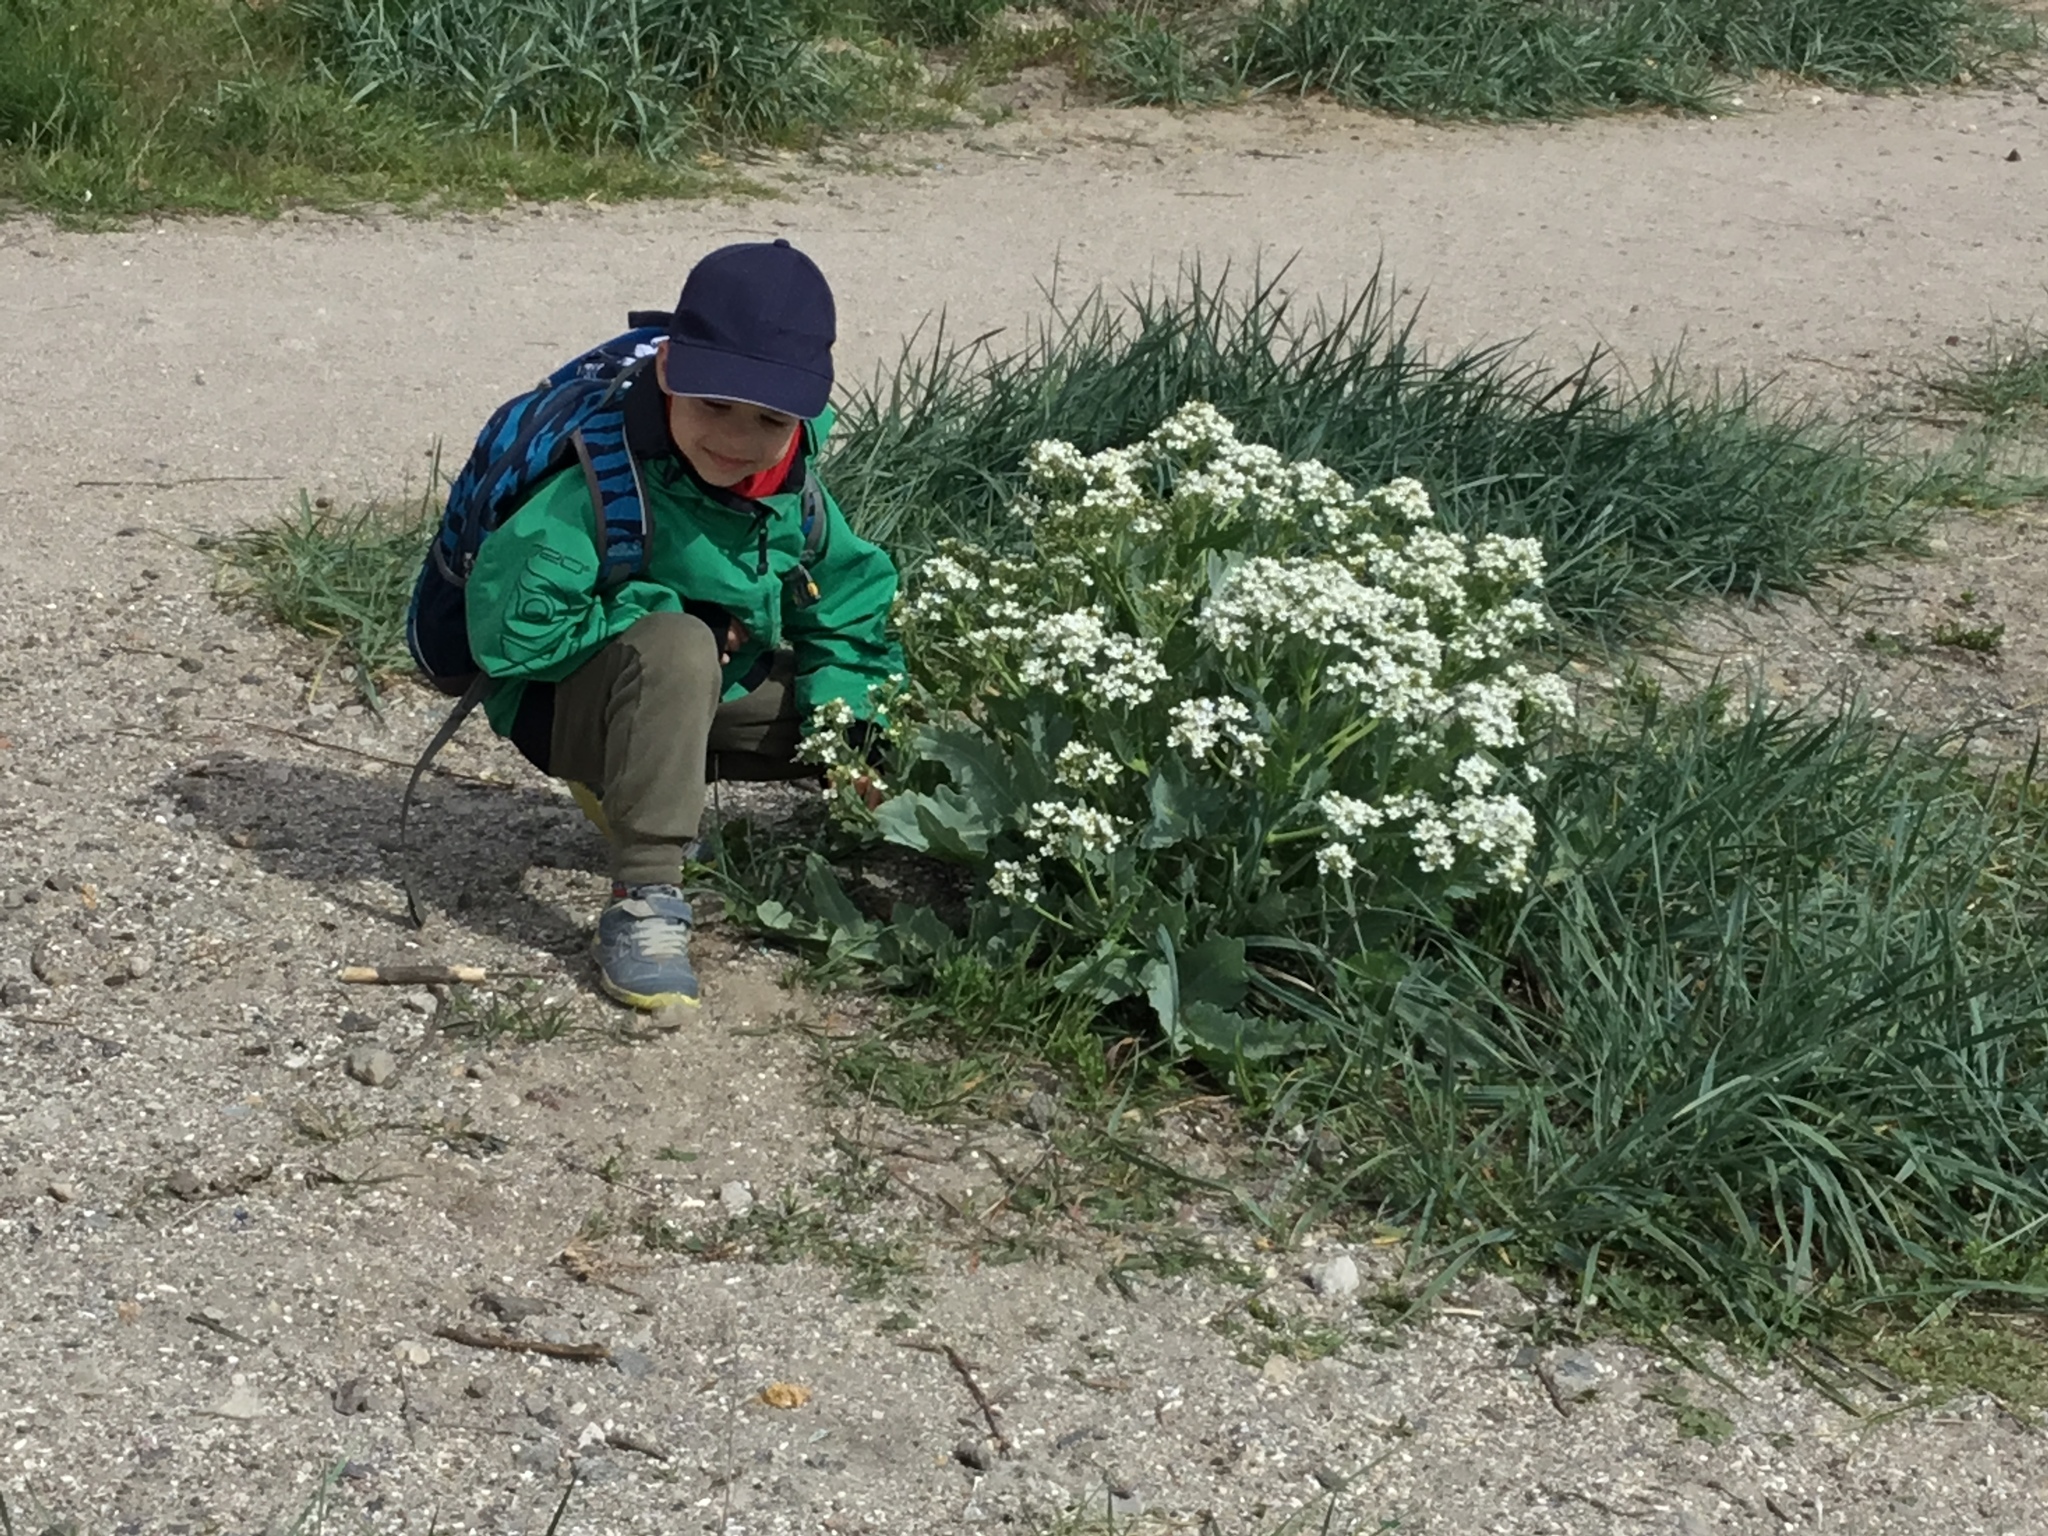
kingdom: Plantae
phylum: Tracheophyta
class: Magnoliopsida
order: Brassicales
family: Brassicaceae
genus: Crambe
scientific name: Crambe maritima
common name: Sea-kale
